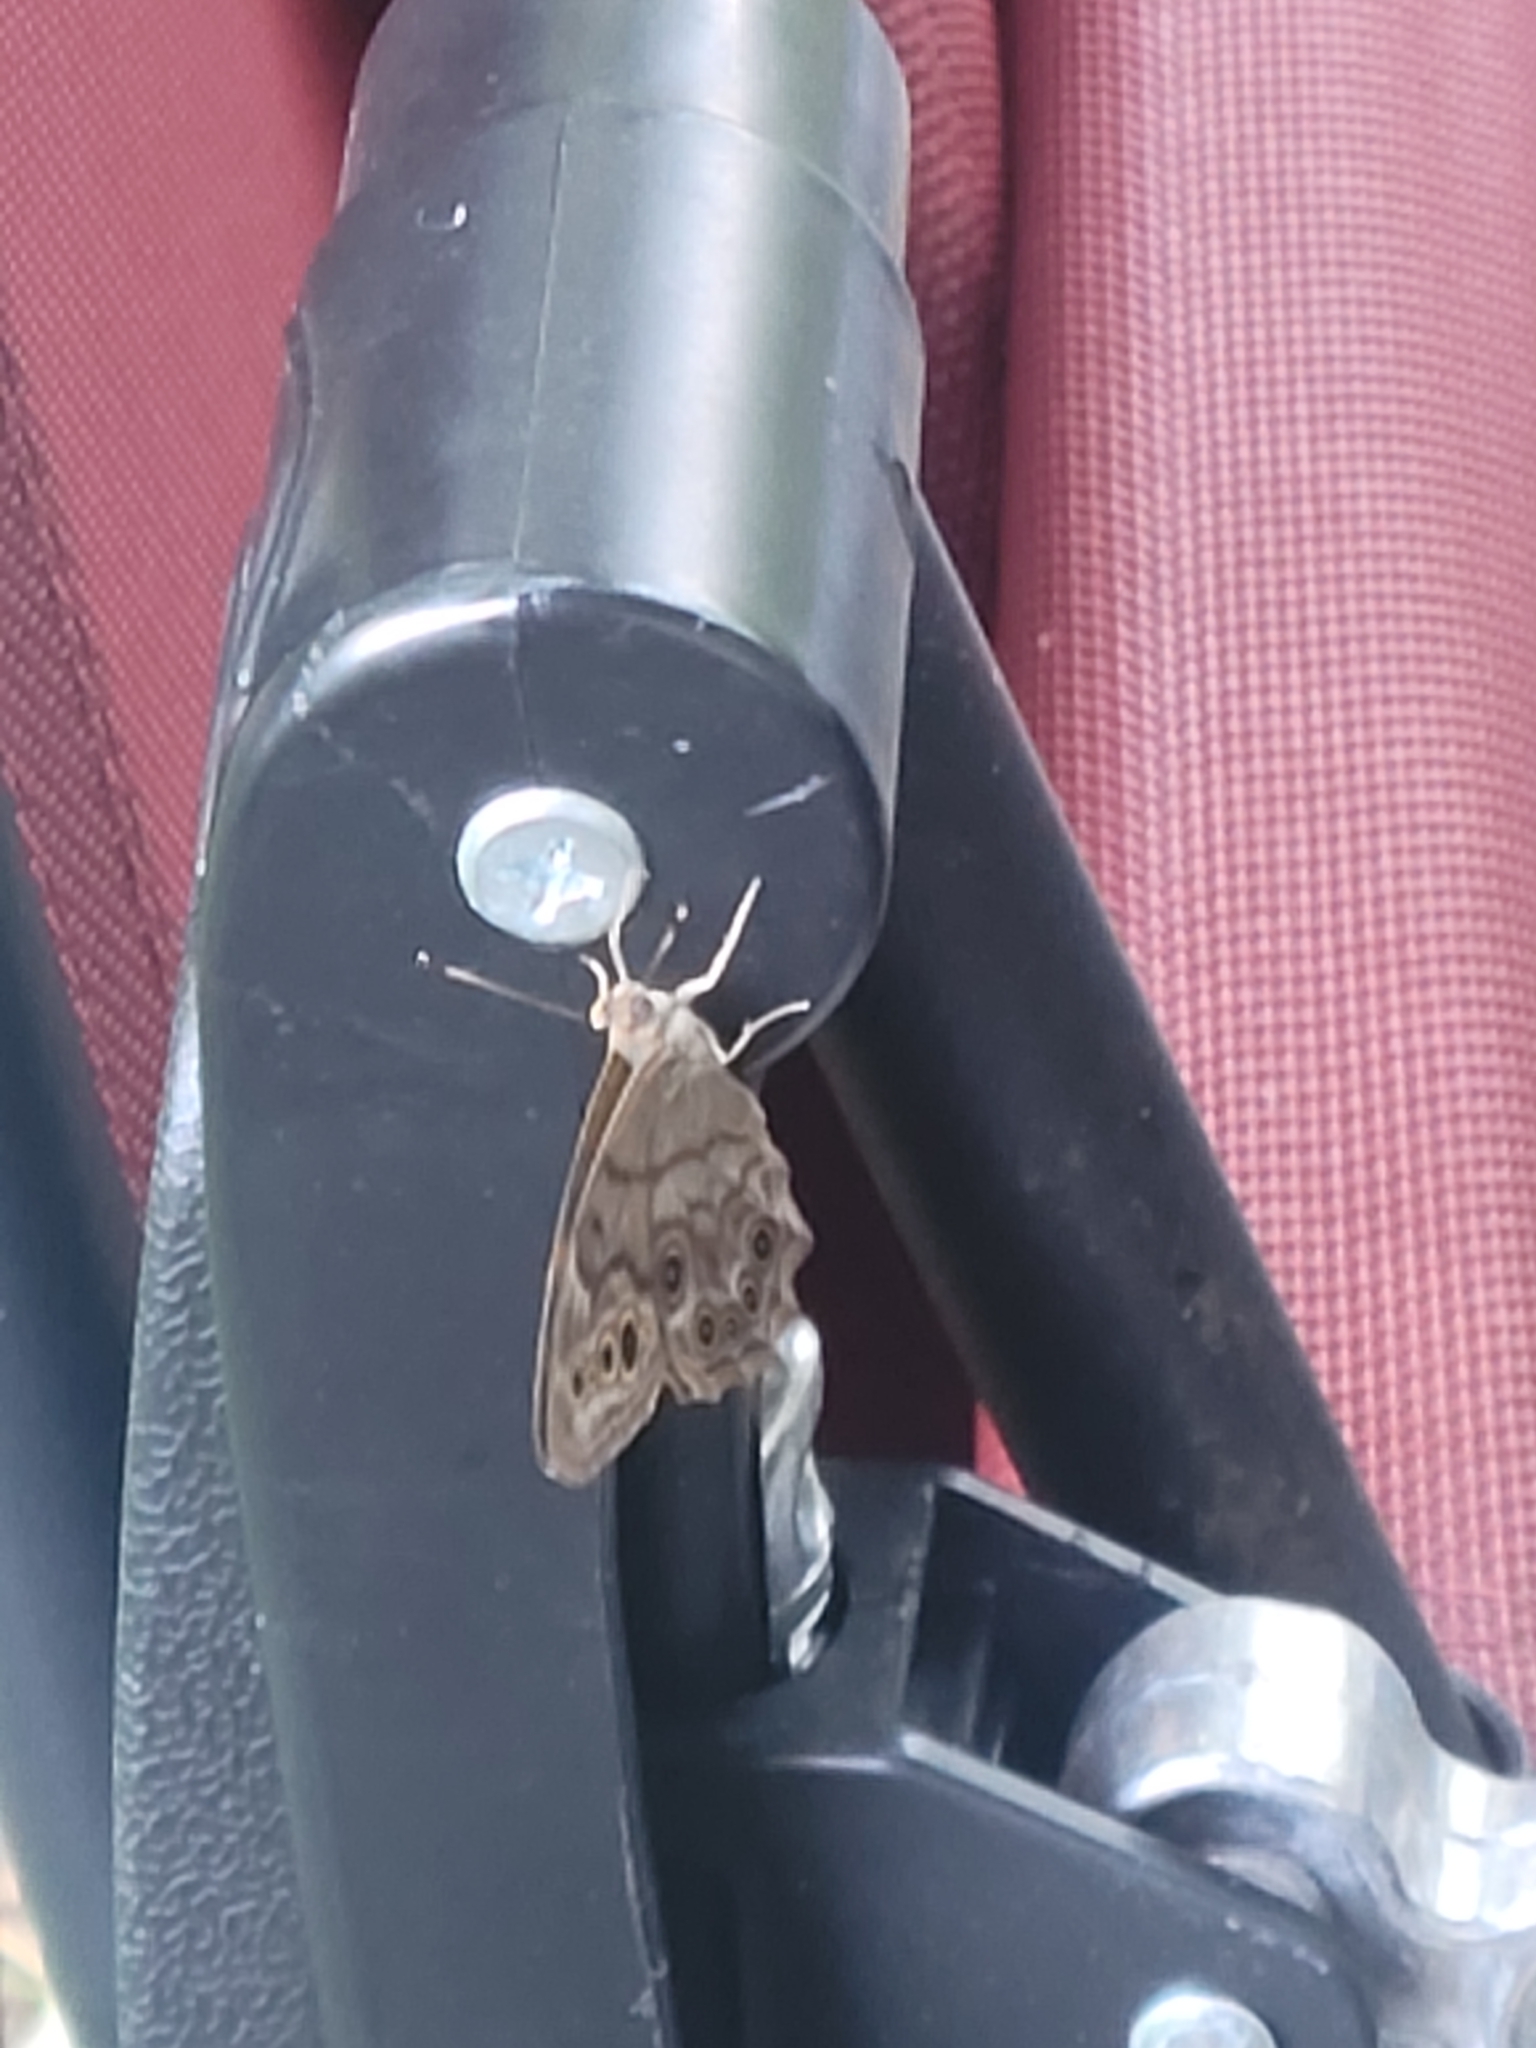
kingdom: Animalia
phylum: Arthropoda
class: Insecta
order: Lepidoptera
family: Nymphalidae
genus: Lethe
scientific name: Lethe anthedon
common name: Northern pearly-eye
